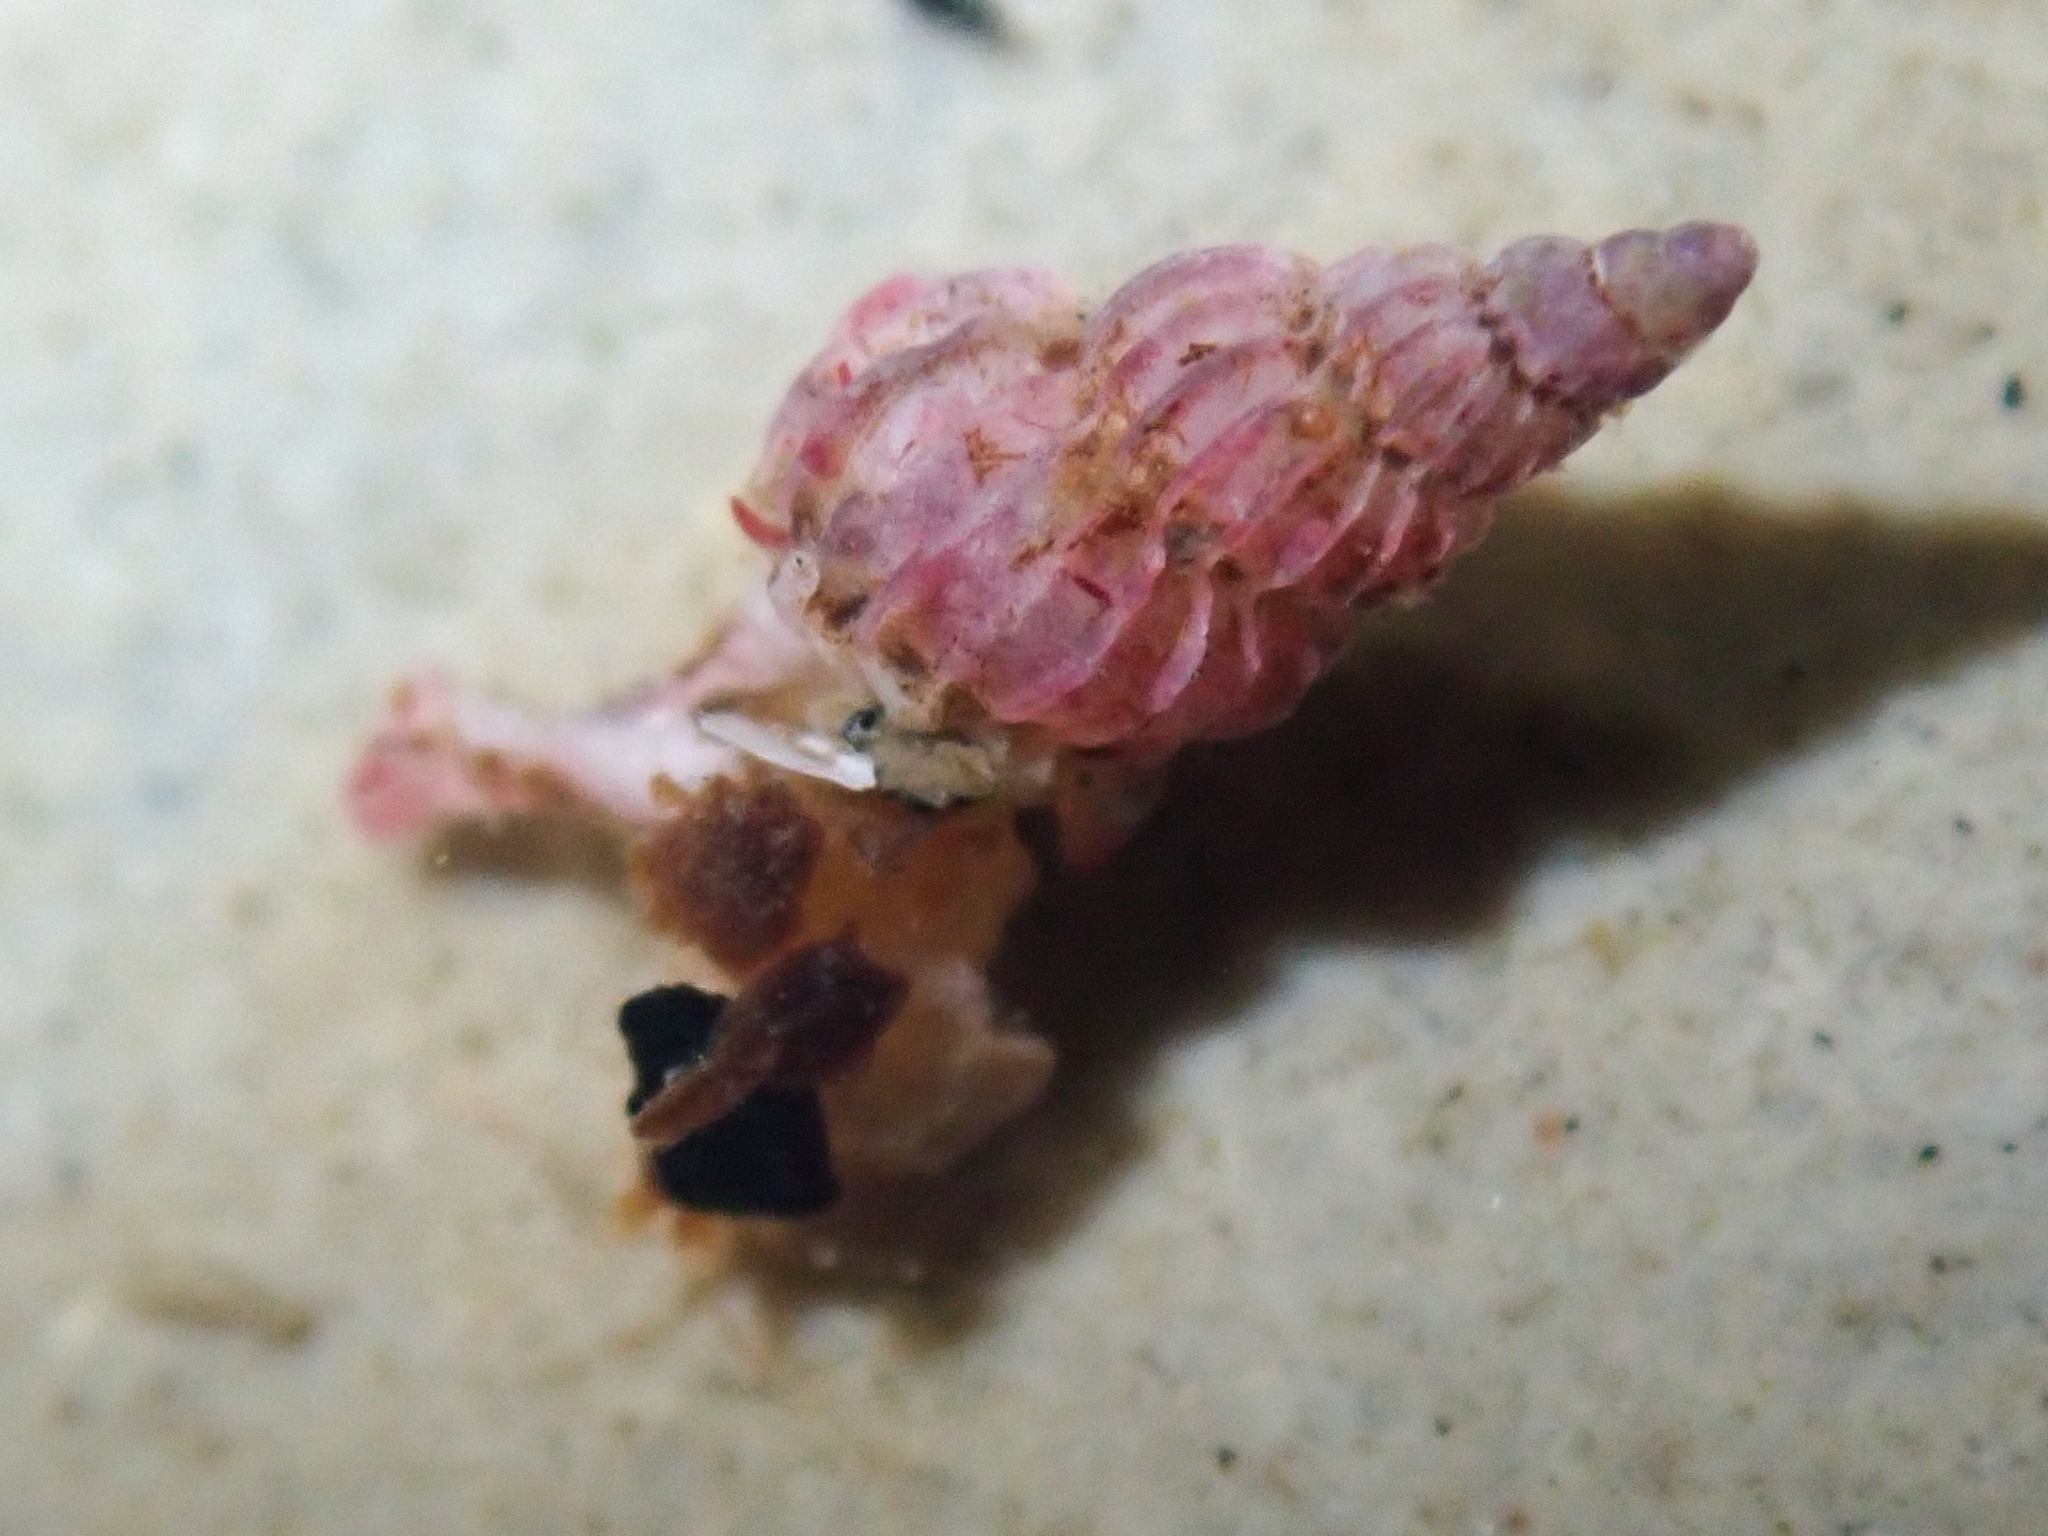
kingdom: Animalia
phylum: Mollusca
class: Gastropoda
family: Epitoniidae
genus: Epitonium
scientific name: Epitonium tinctum
